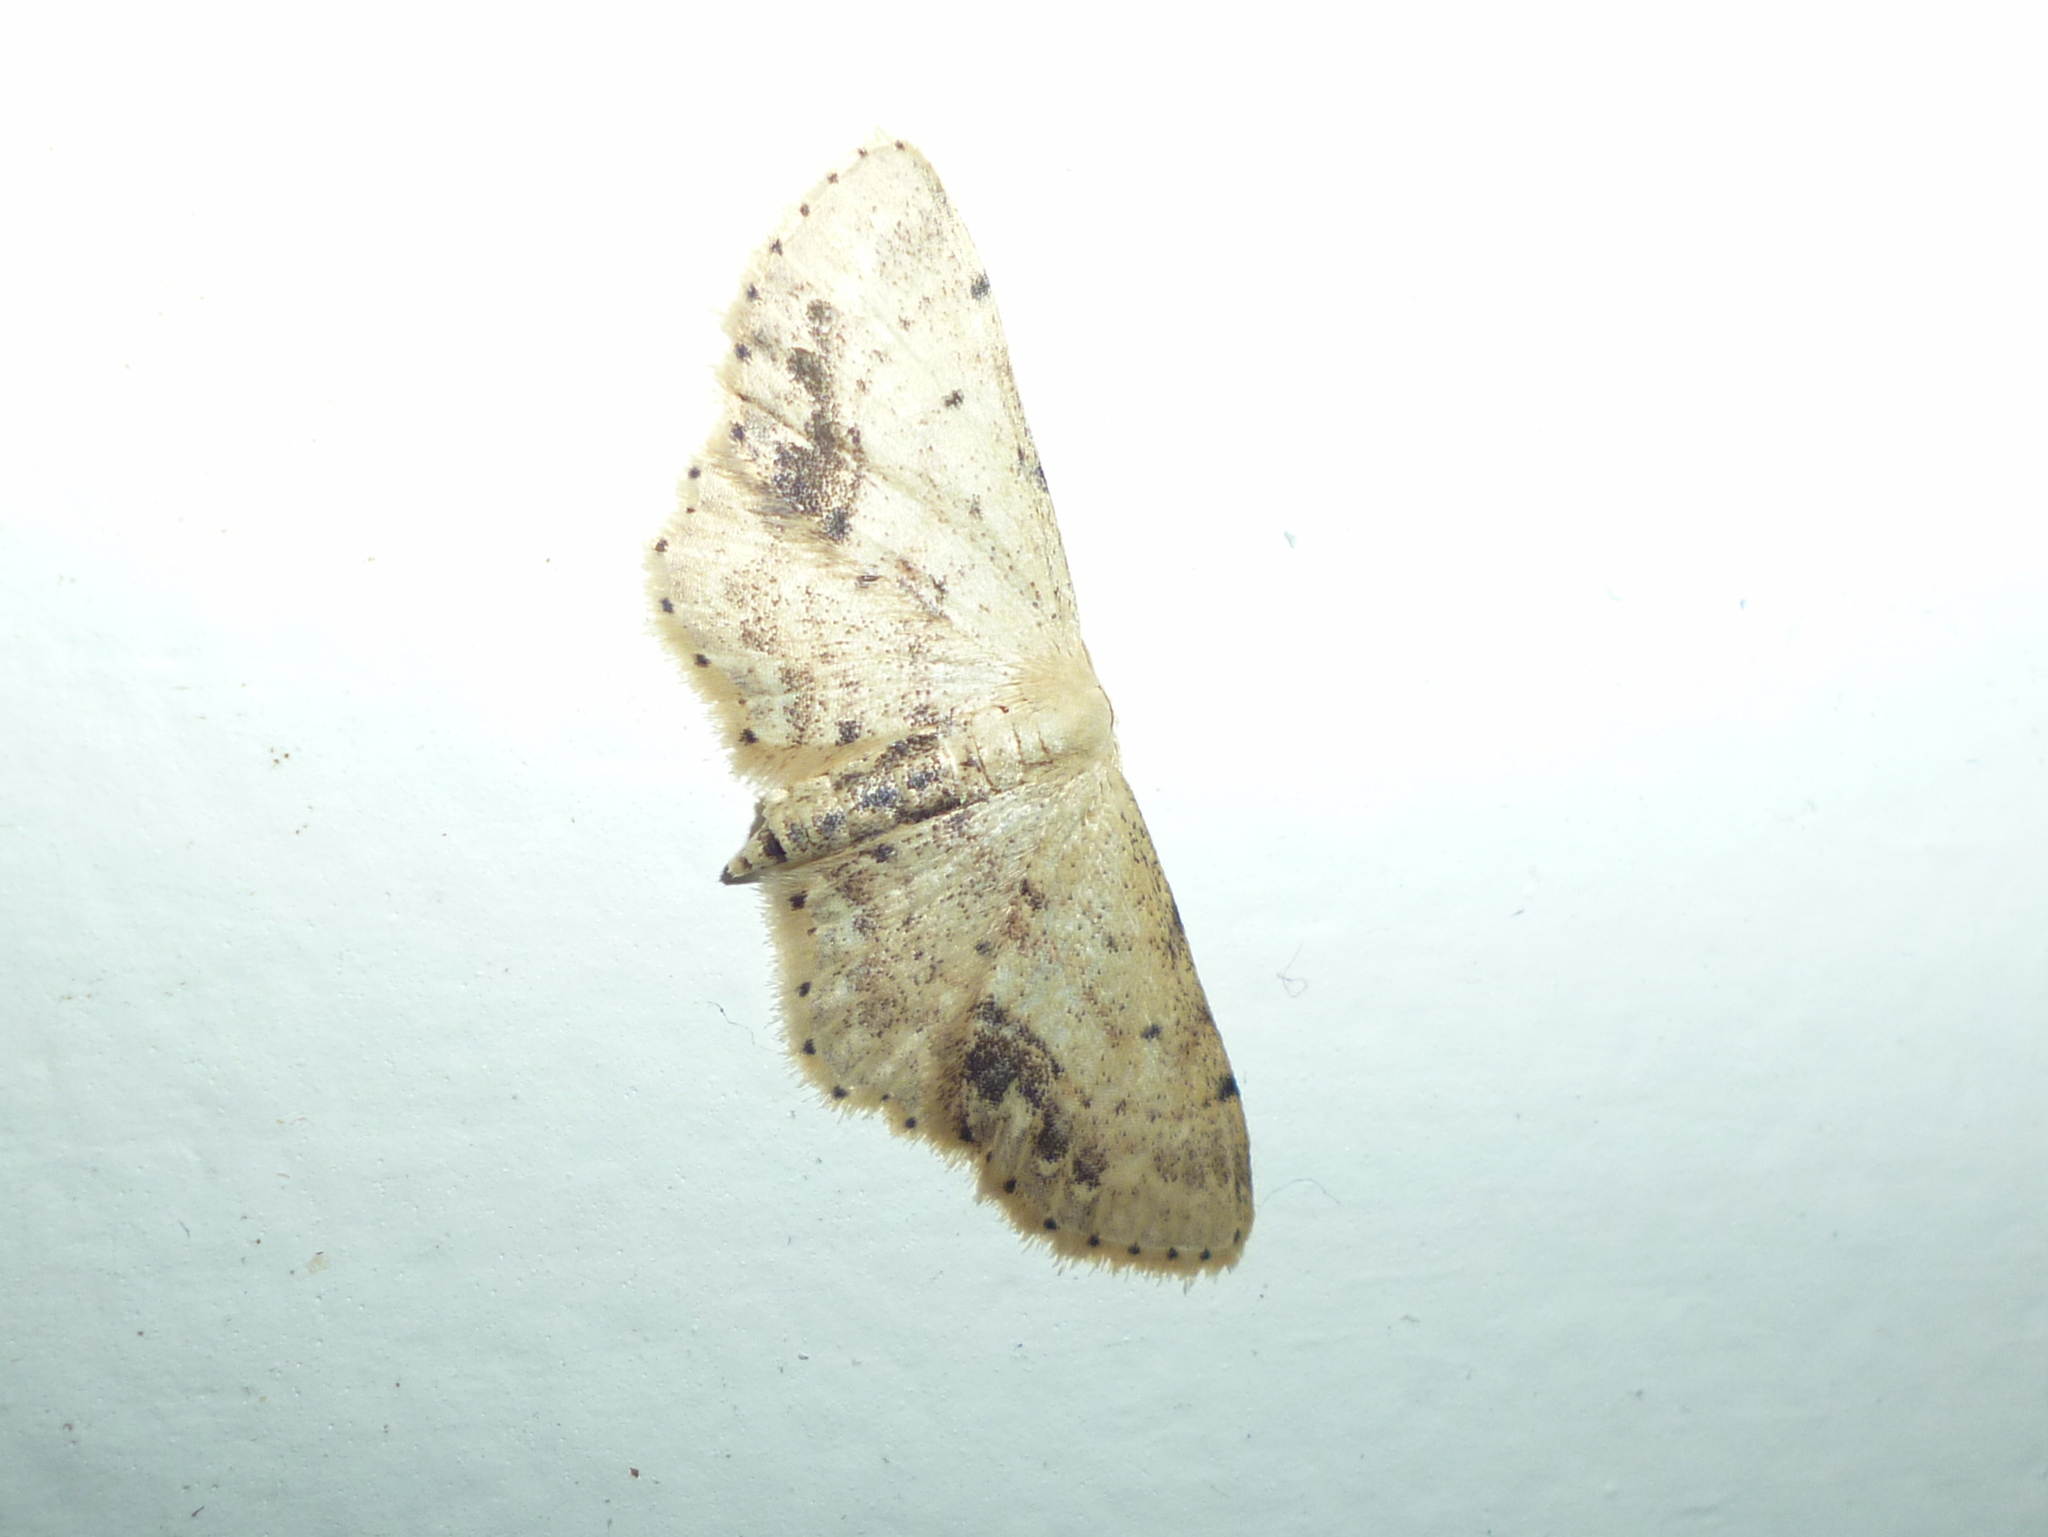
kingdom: Animalia
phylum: Arthropoda
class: Insecta
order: Lepidoptera
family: Geometridae
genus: Idaea
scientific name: Idaea dimidiata
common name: Single-dotted wave
